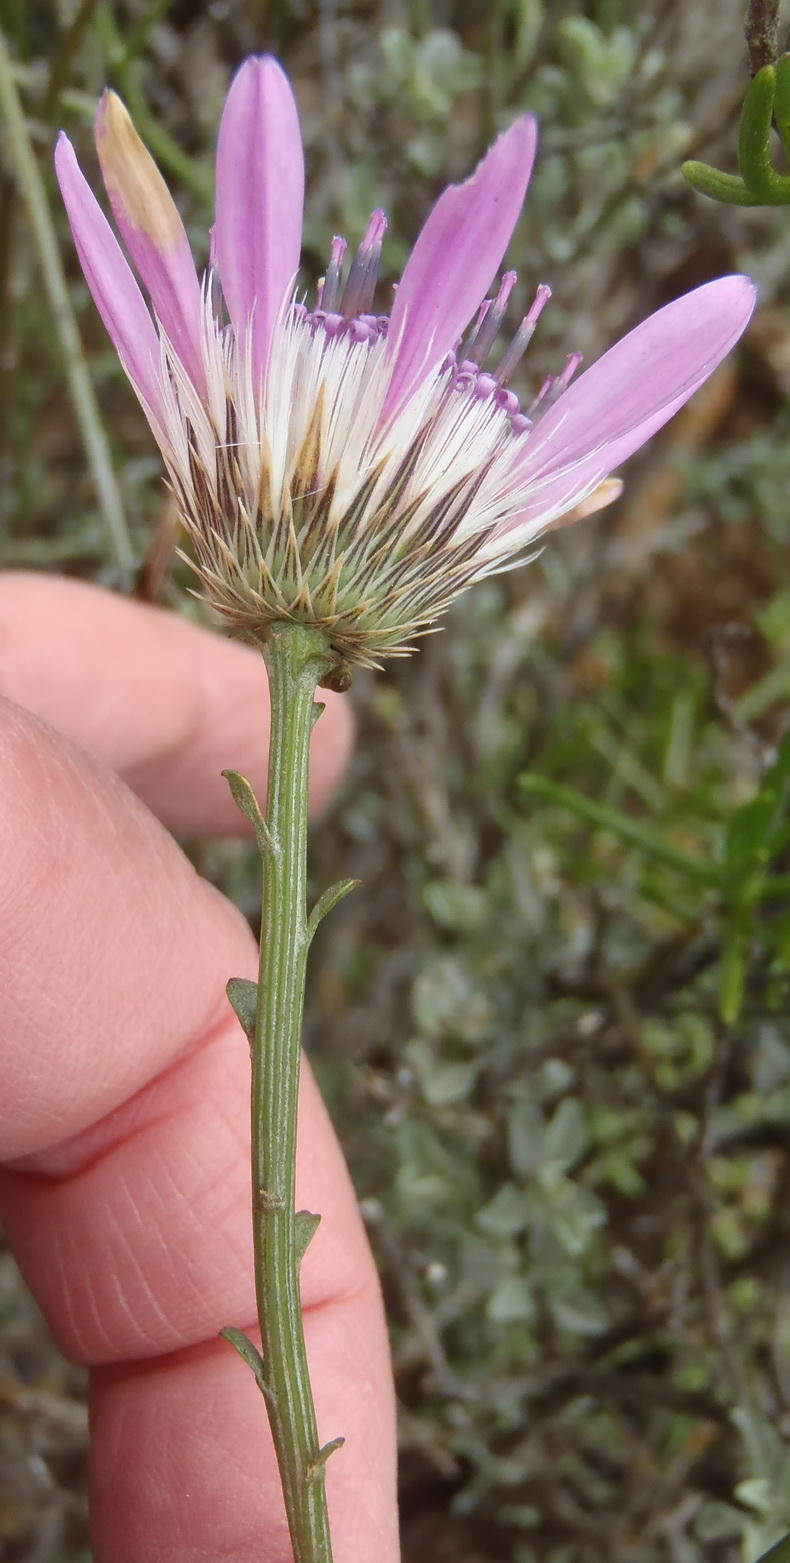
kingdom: Plantae
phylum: Tracheophyta
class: Magnoliopsida
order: Asterales
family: Asteraceae
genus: Dicoma
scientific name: Dicoma picta
